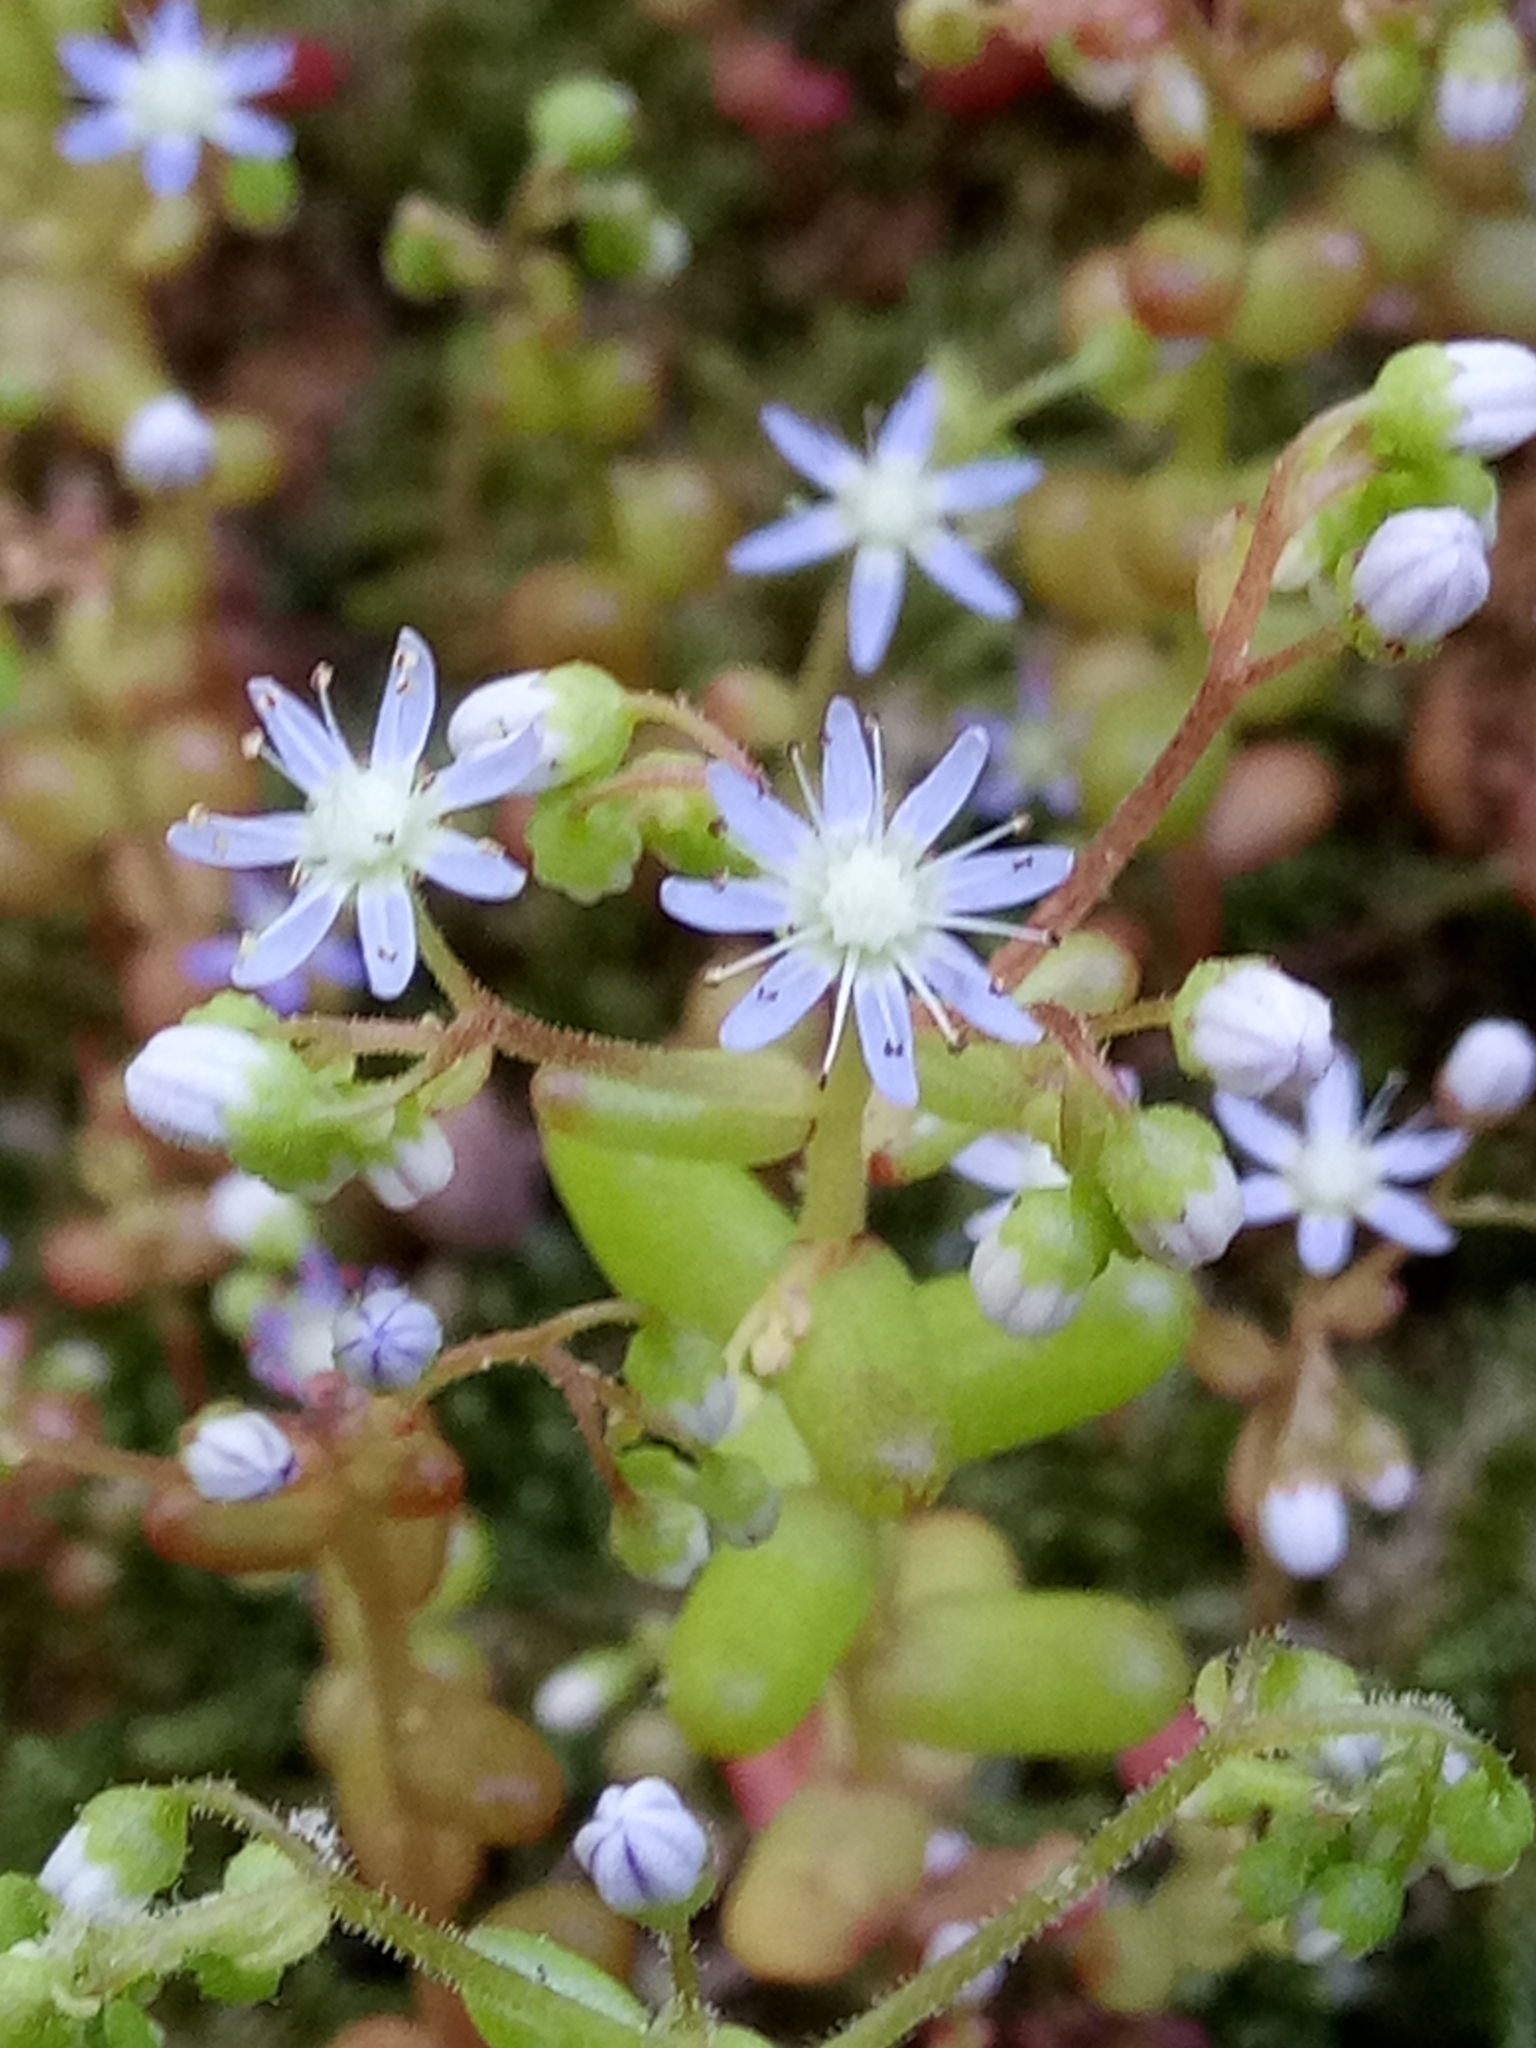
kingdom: Plantae
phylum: Tracheophyta
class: Magnoliopsida
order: Saxifragales
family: Crassulaceae
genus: Sedum
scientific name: Sedum caeruleum
